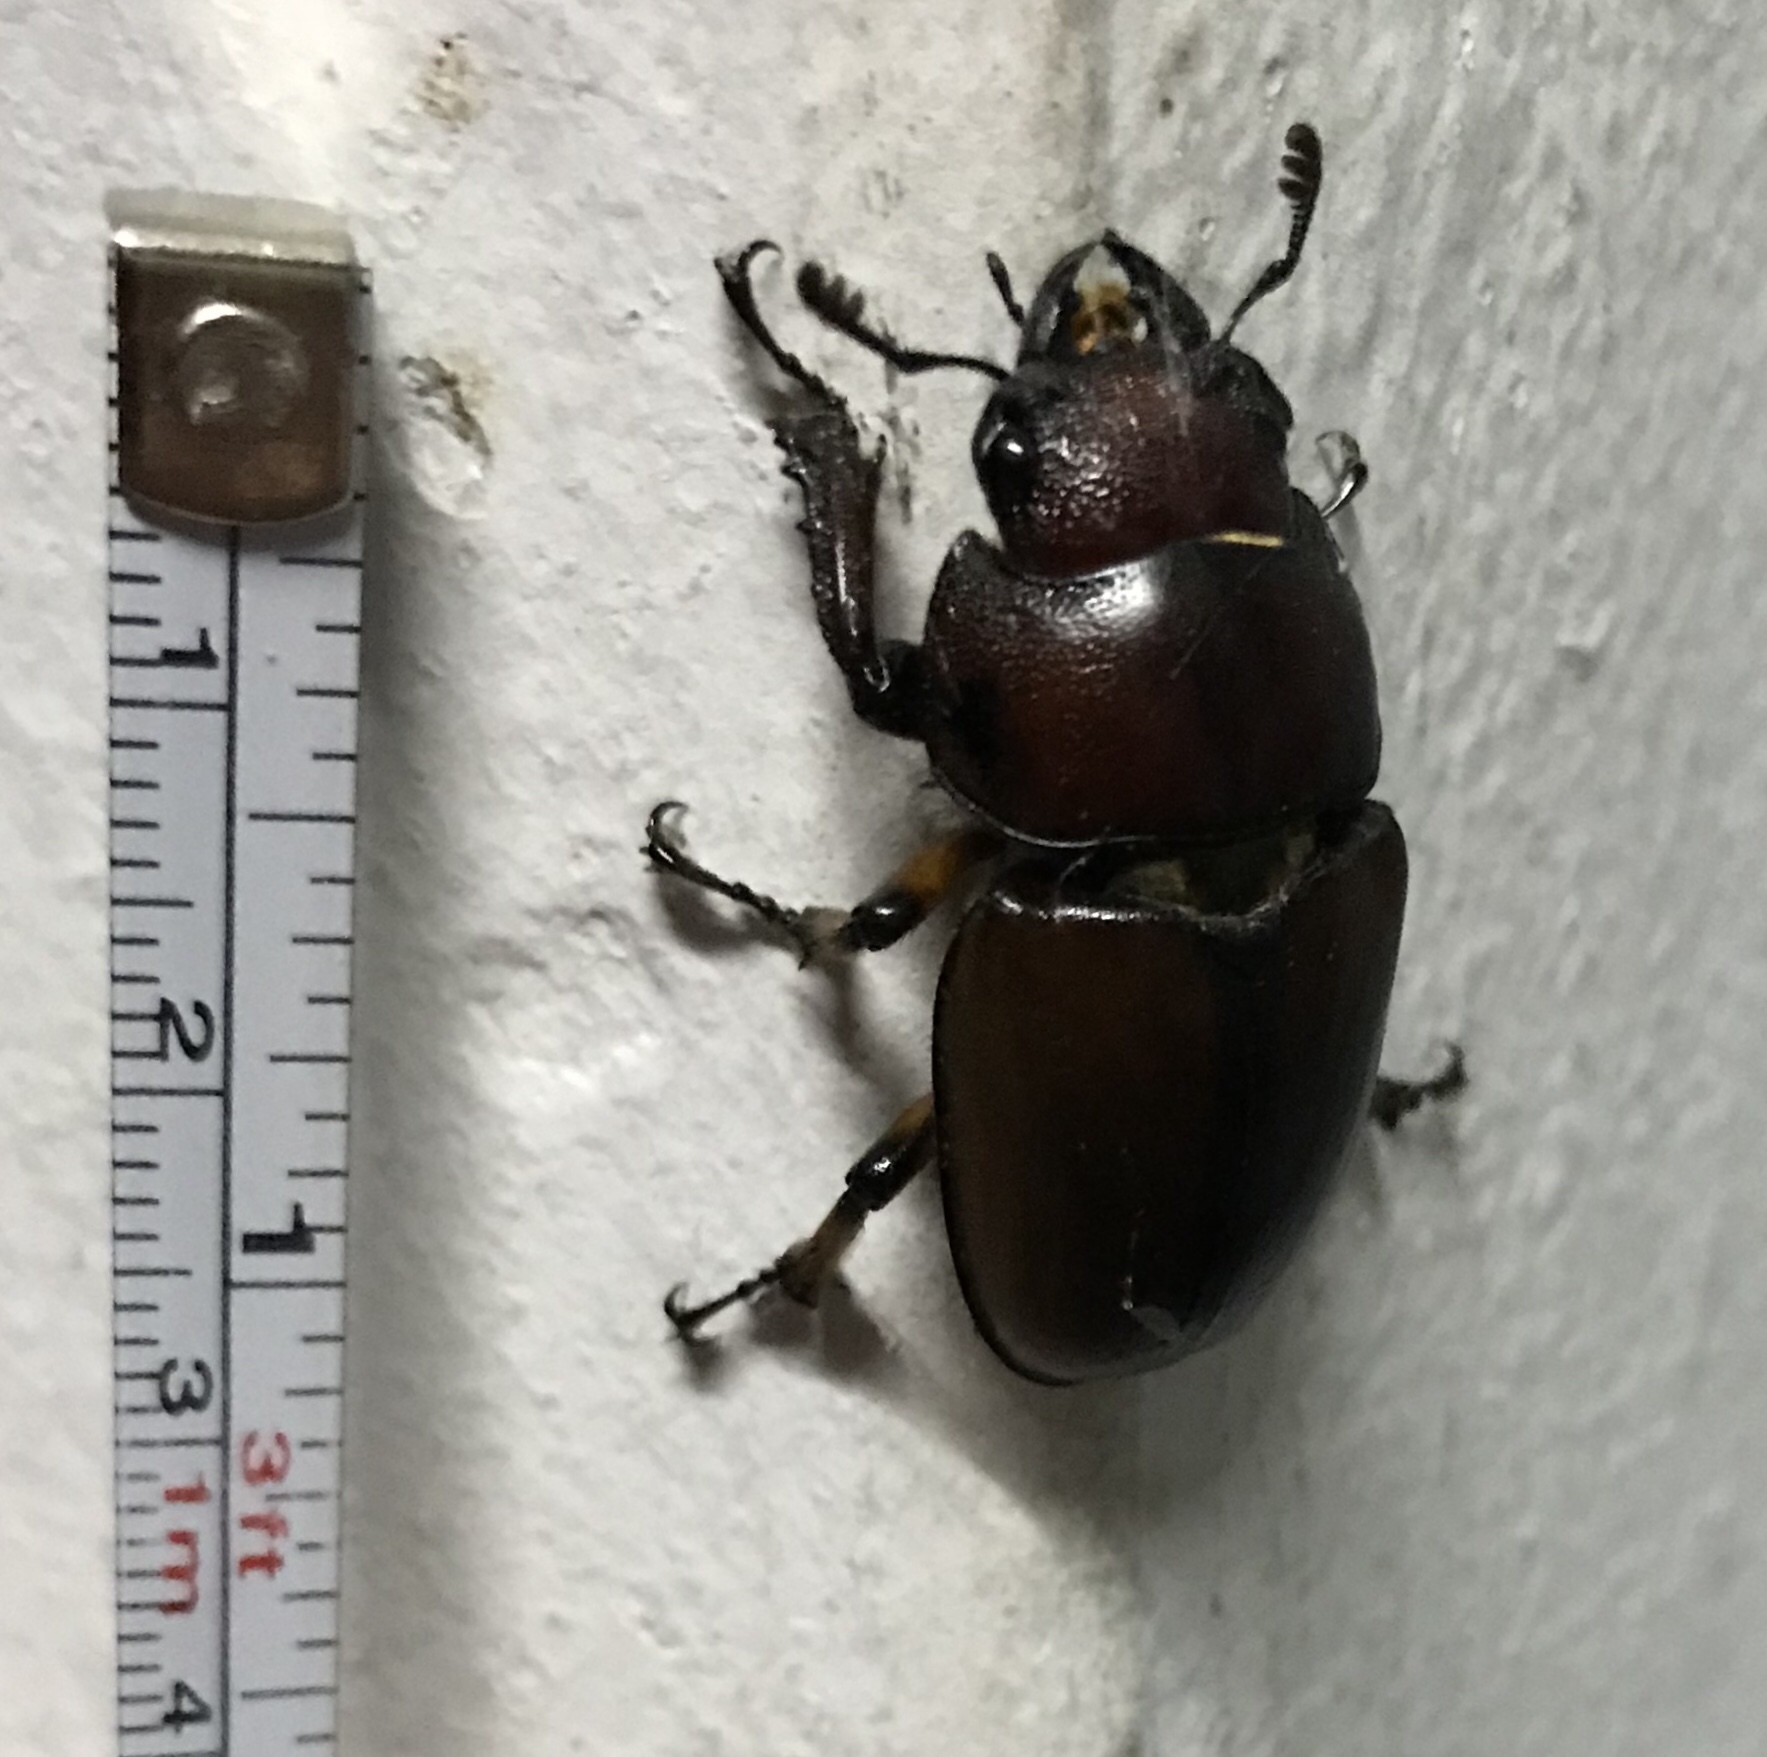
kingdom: Animalia
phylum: Arthropoda
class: Insecta
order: Coleoptera
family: Lucanidae
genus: Prosopocoilus
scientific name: Prosopocoilus astacoides
